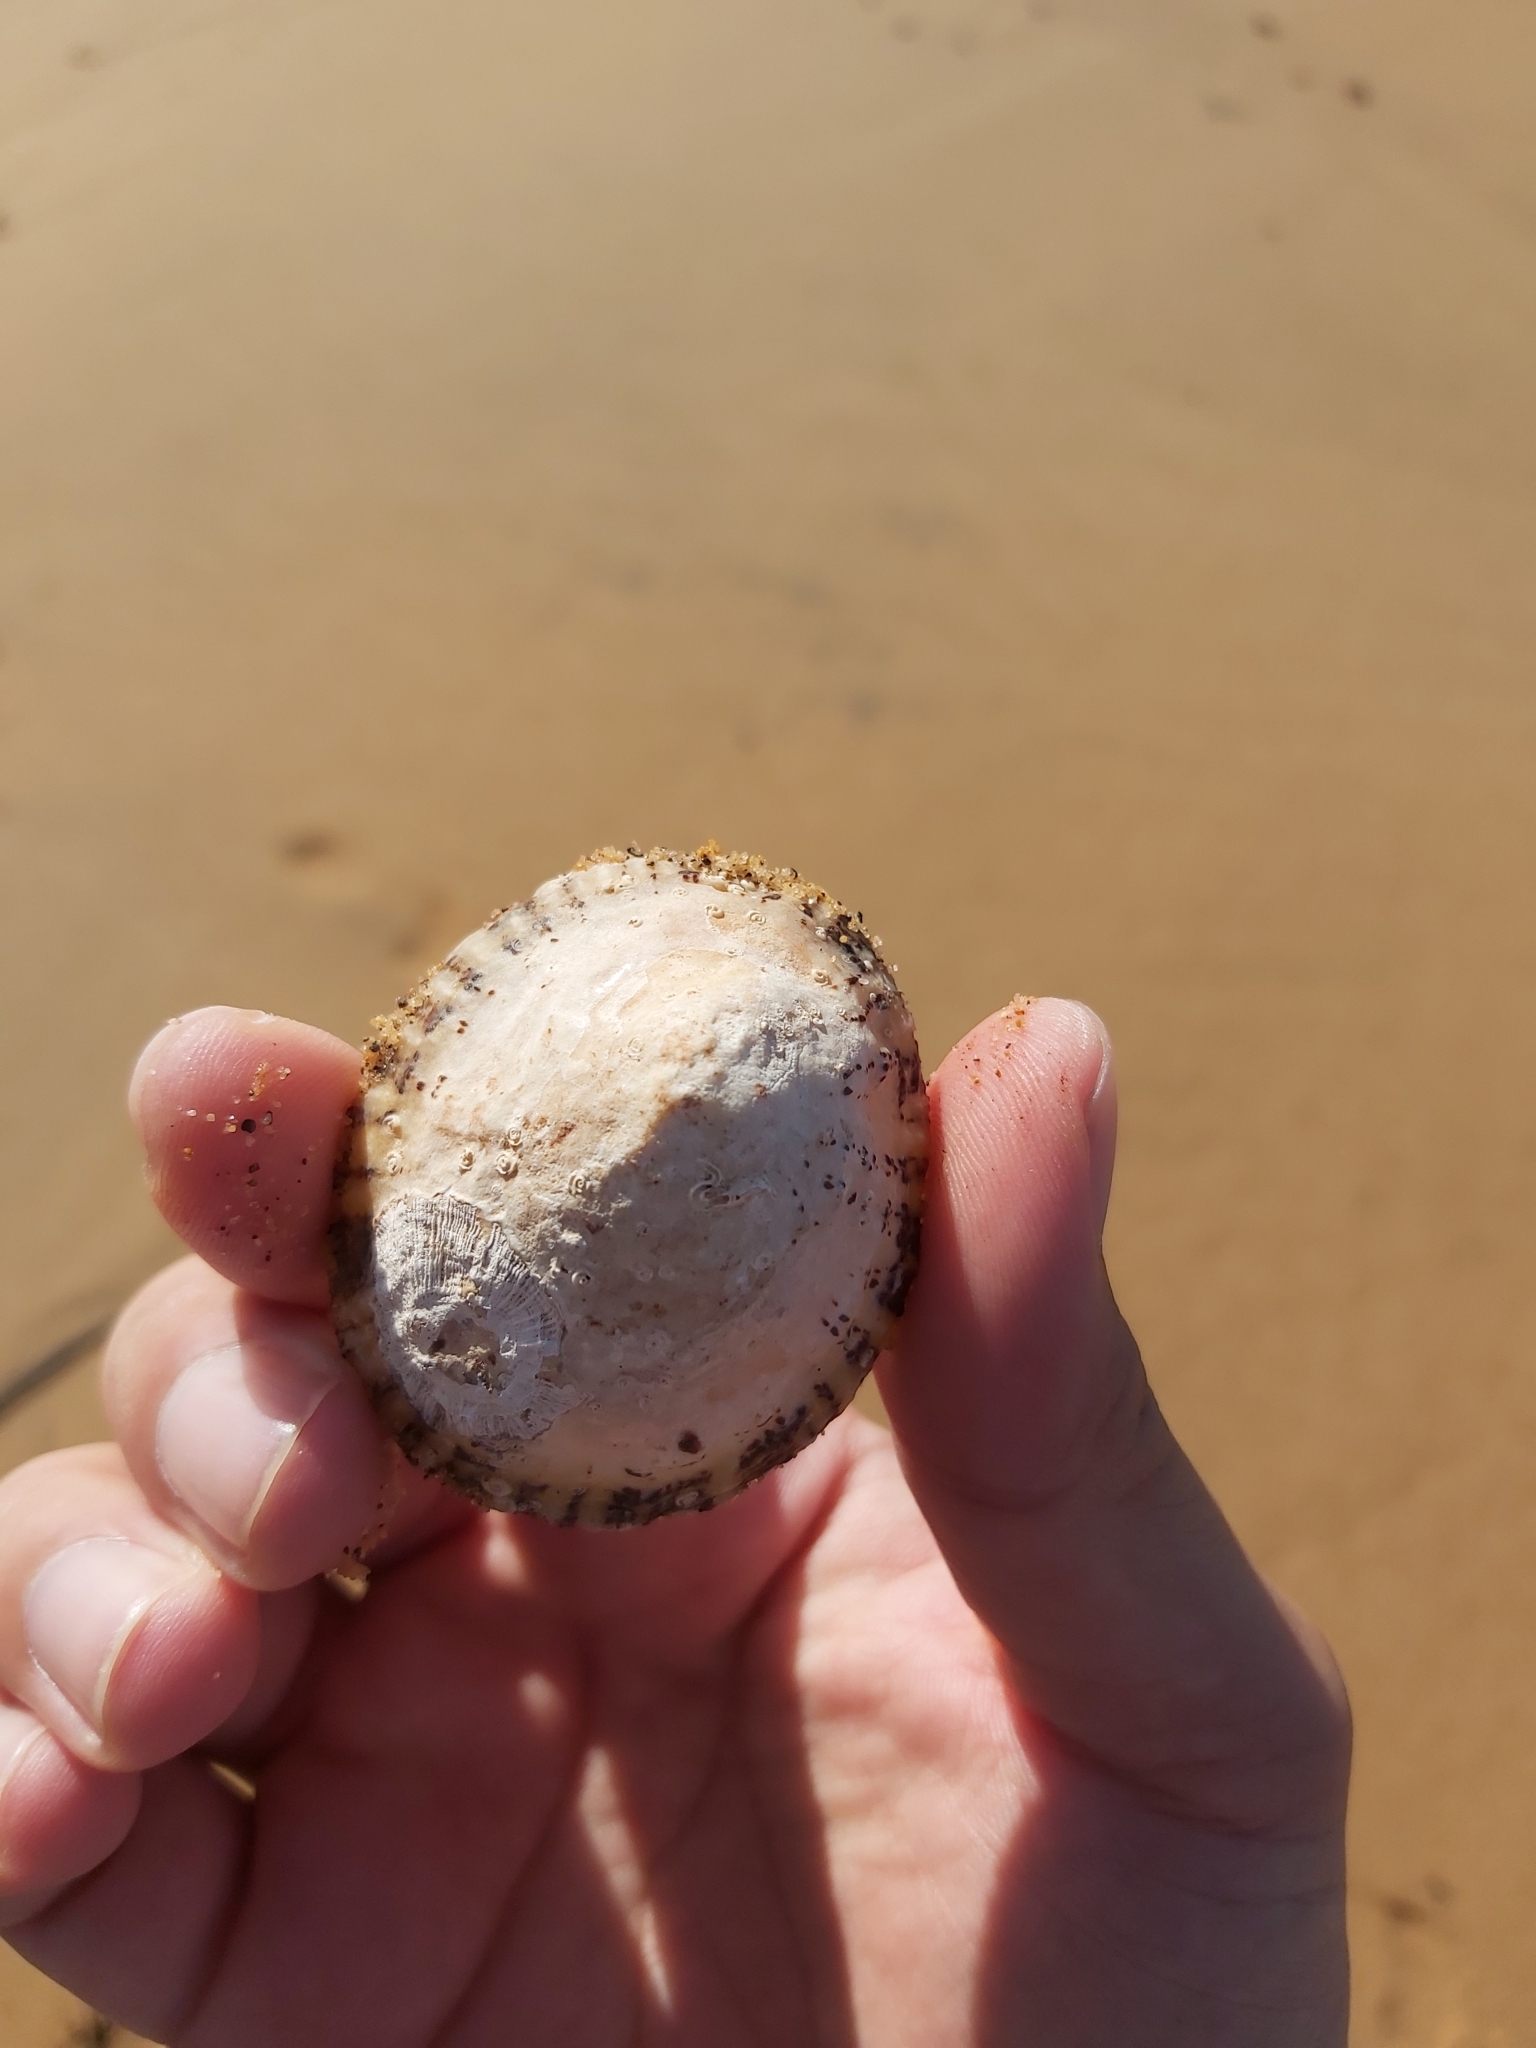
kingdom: Animalia
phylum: Mollusca
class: Gastropoda
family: Nacellidae
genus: Cellana
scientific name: Cellana tramoserica
